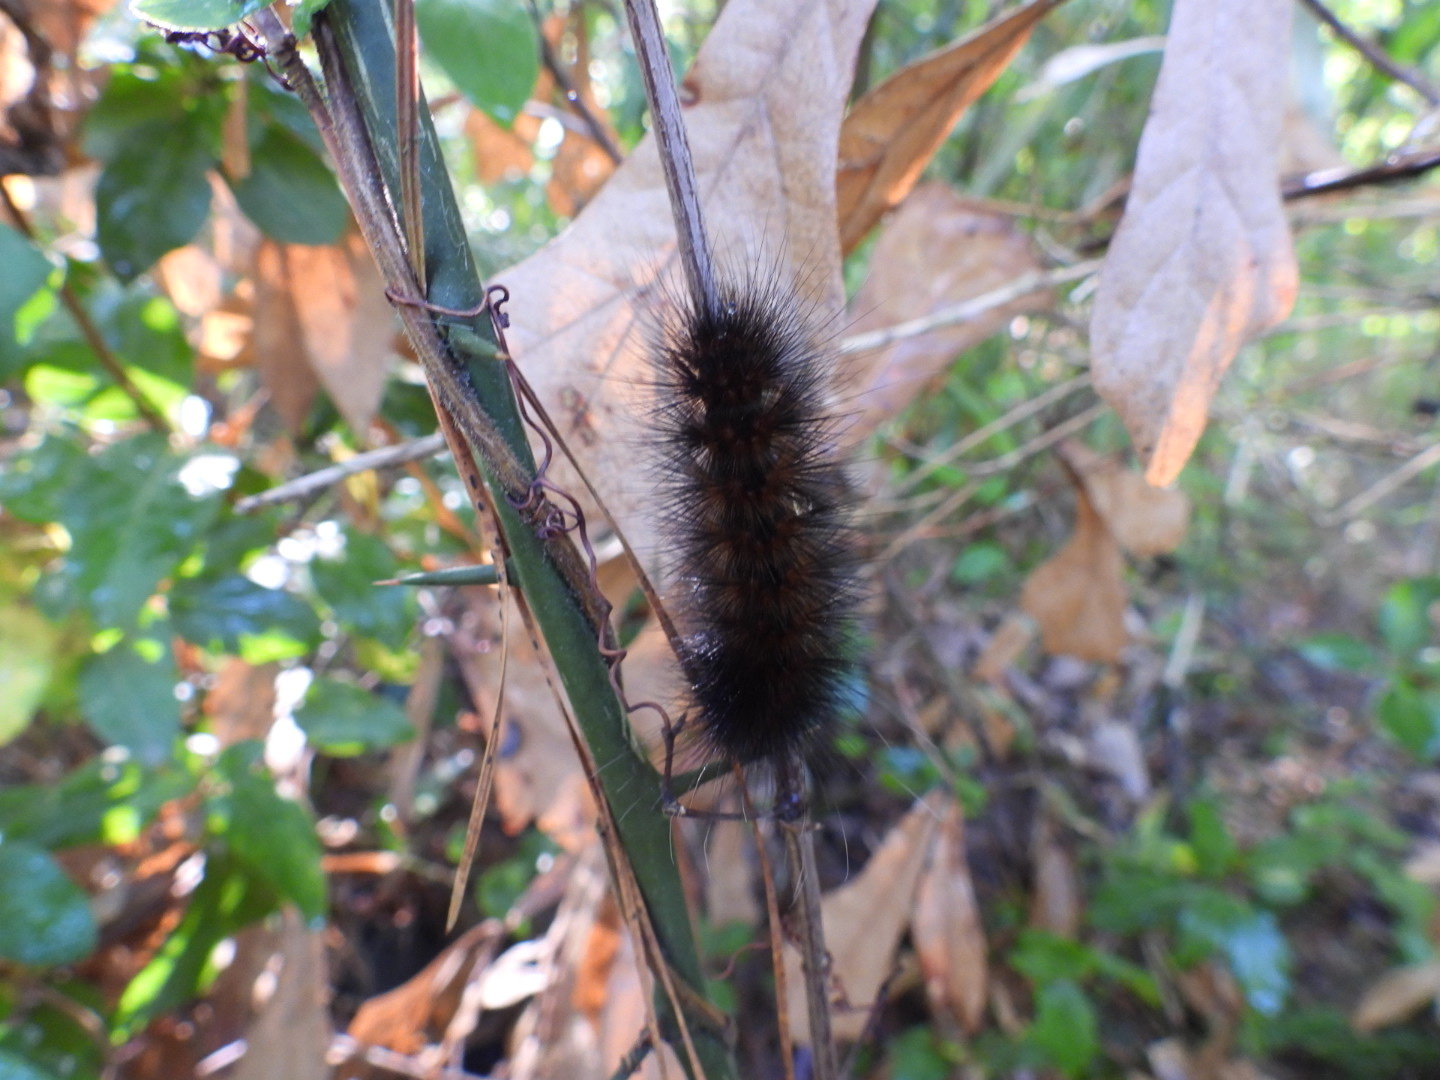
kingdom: Animalia
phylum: Arthropoda
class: Insecta
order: Lepidoptera
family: Erebidae
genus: Estigmene
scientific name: Estigmene acrea
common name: Salt marsh moth
